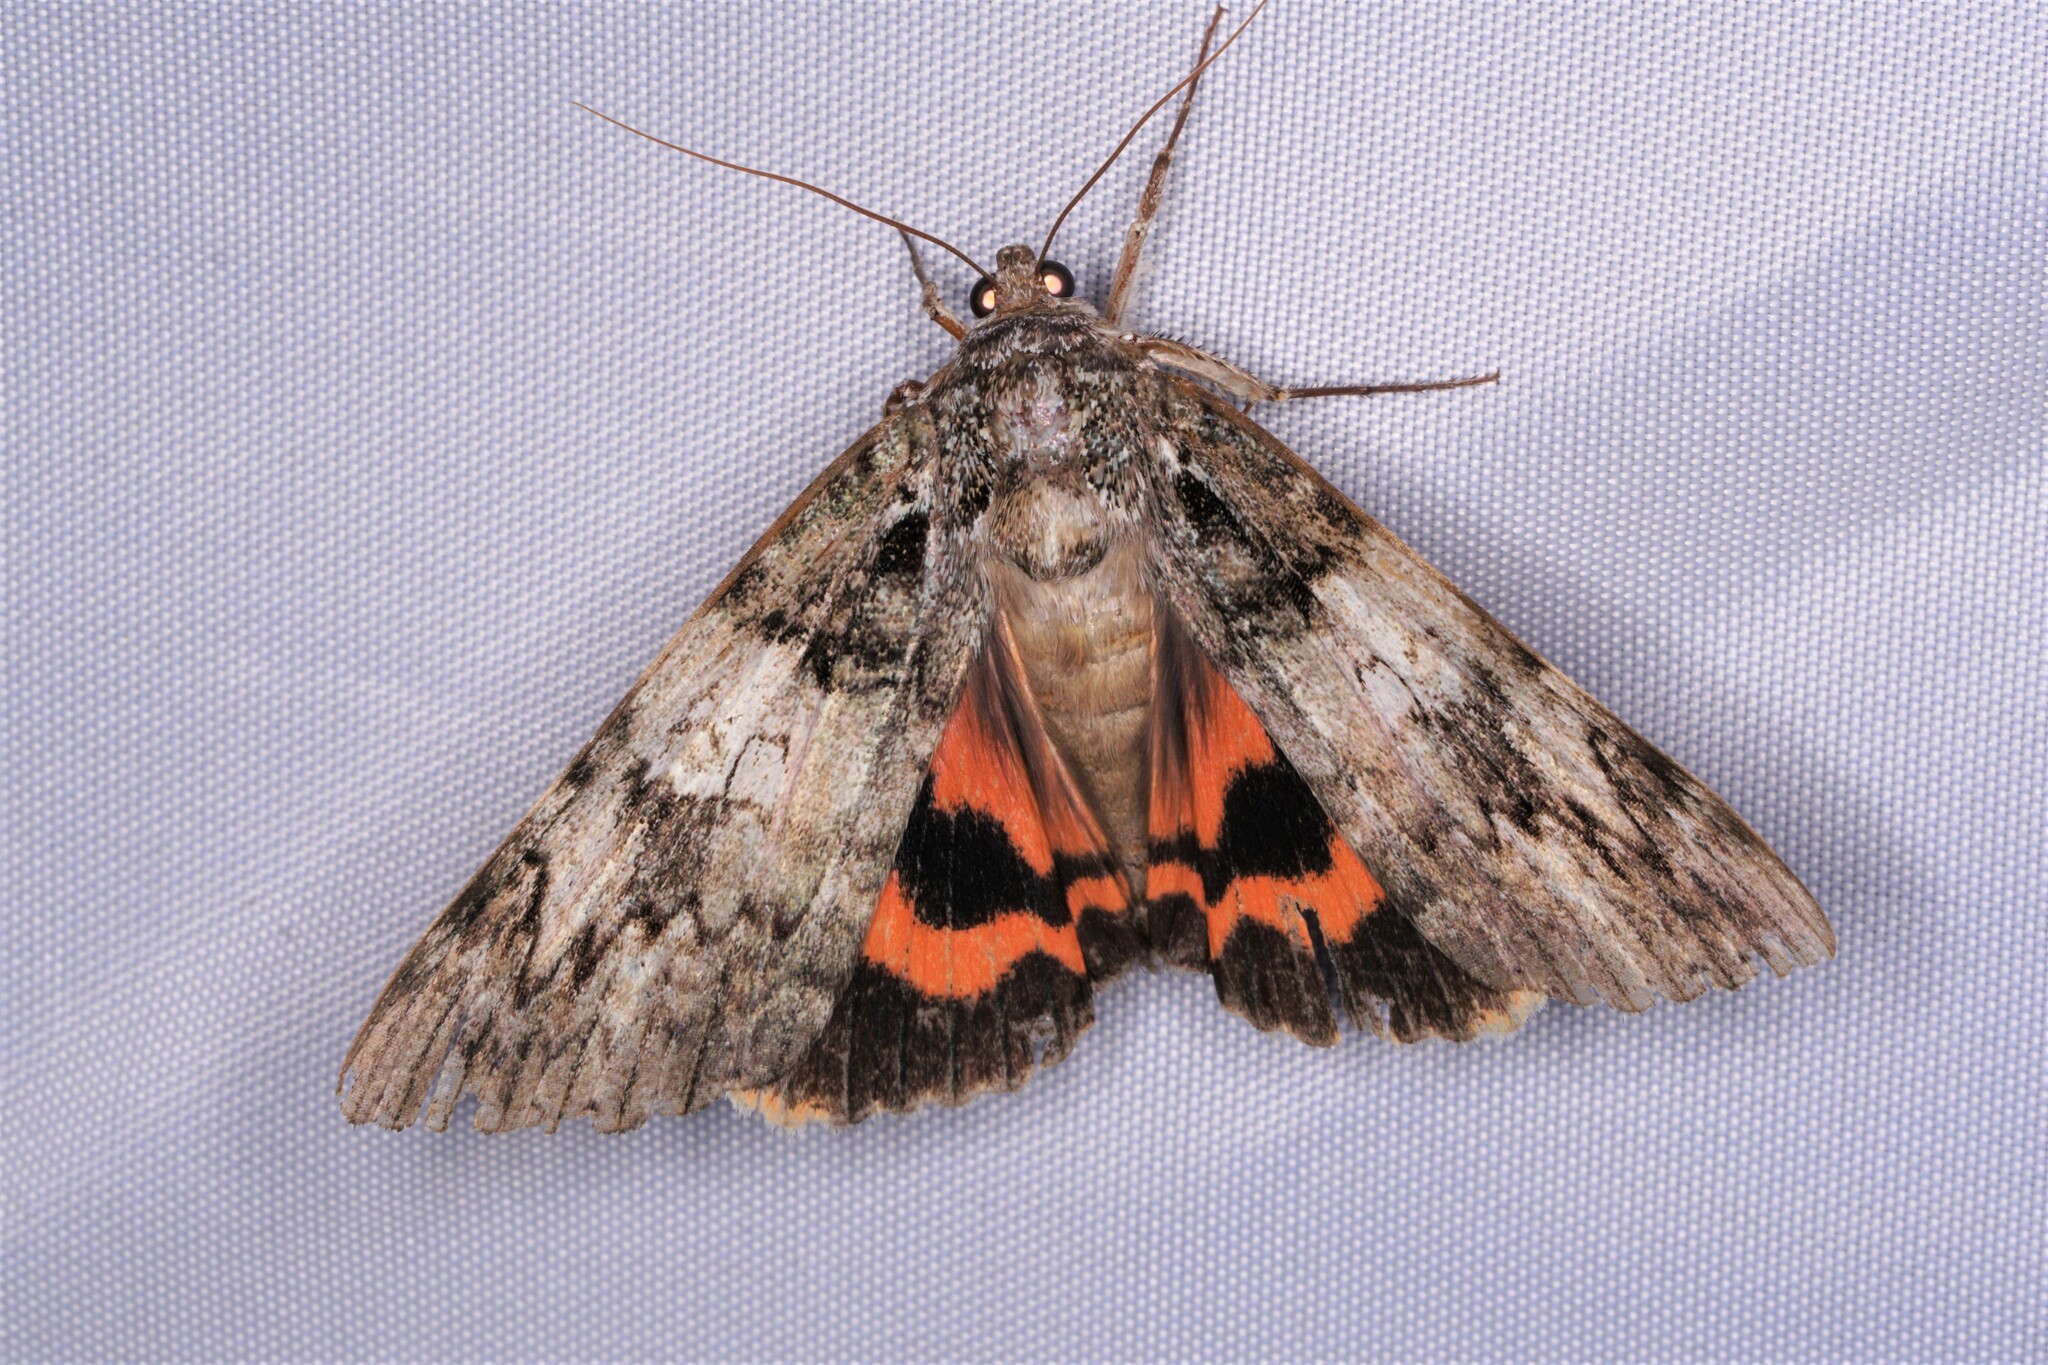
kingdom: Animalia
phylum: Arthropoda
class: Insecta
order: Lepidoptera
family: Erebidae
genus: Catocala
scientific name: Catocala ilia
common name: Ilia underwing
